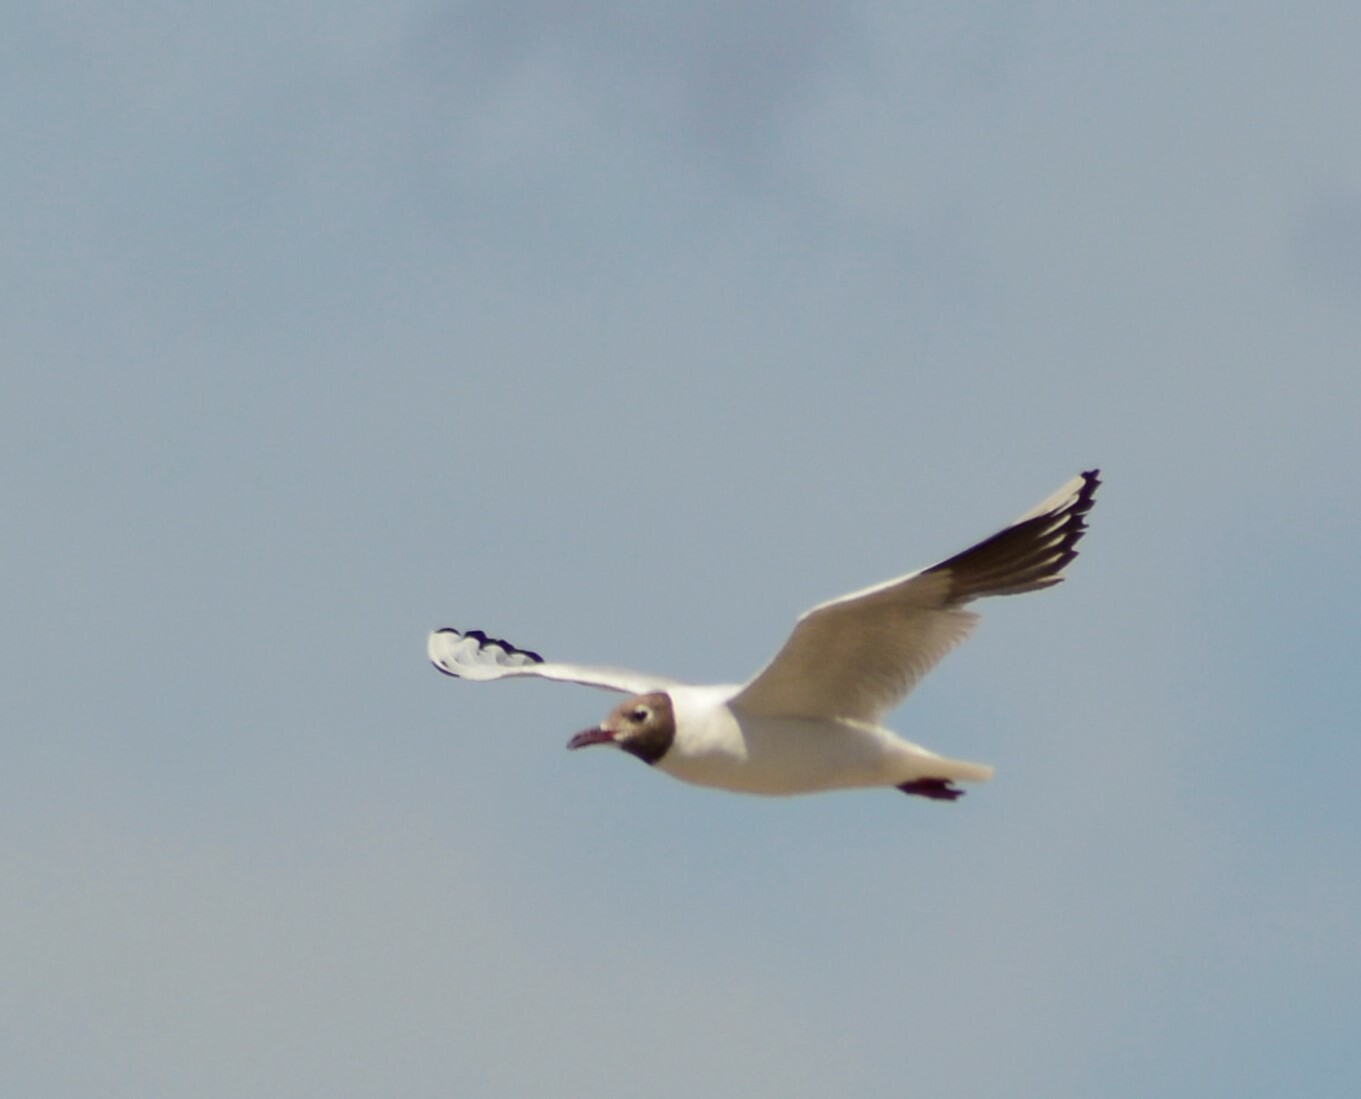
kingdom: Animalia
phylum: Chordata
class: Aves
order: Charadriiformes
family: Laridae
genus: Chroicocephalus
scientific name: Chroicocephalus maculipennis
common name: Brown-hooded gull
